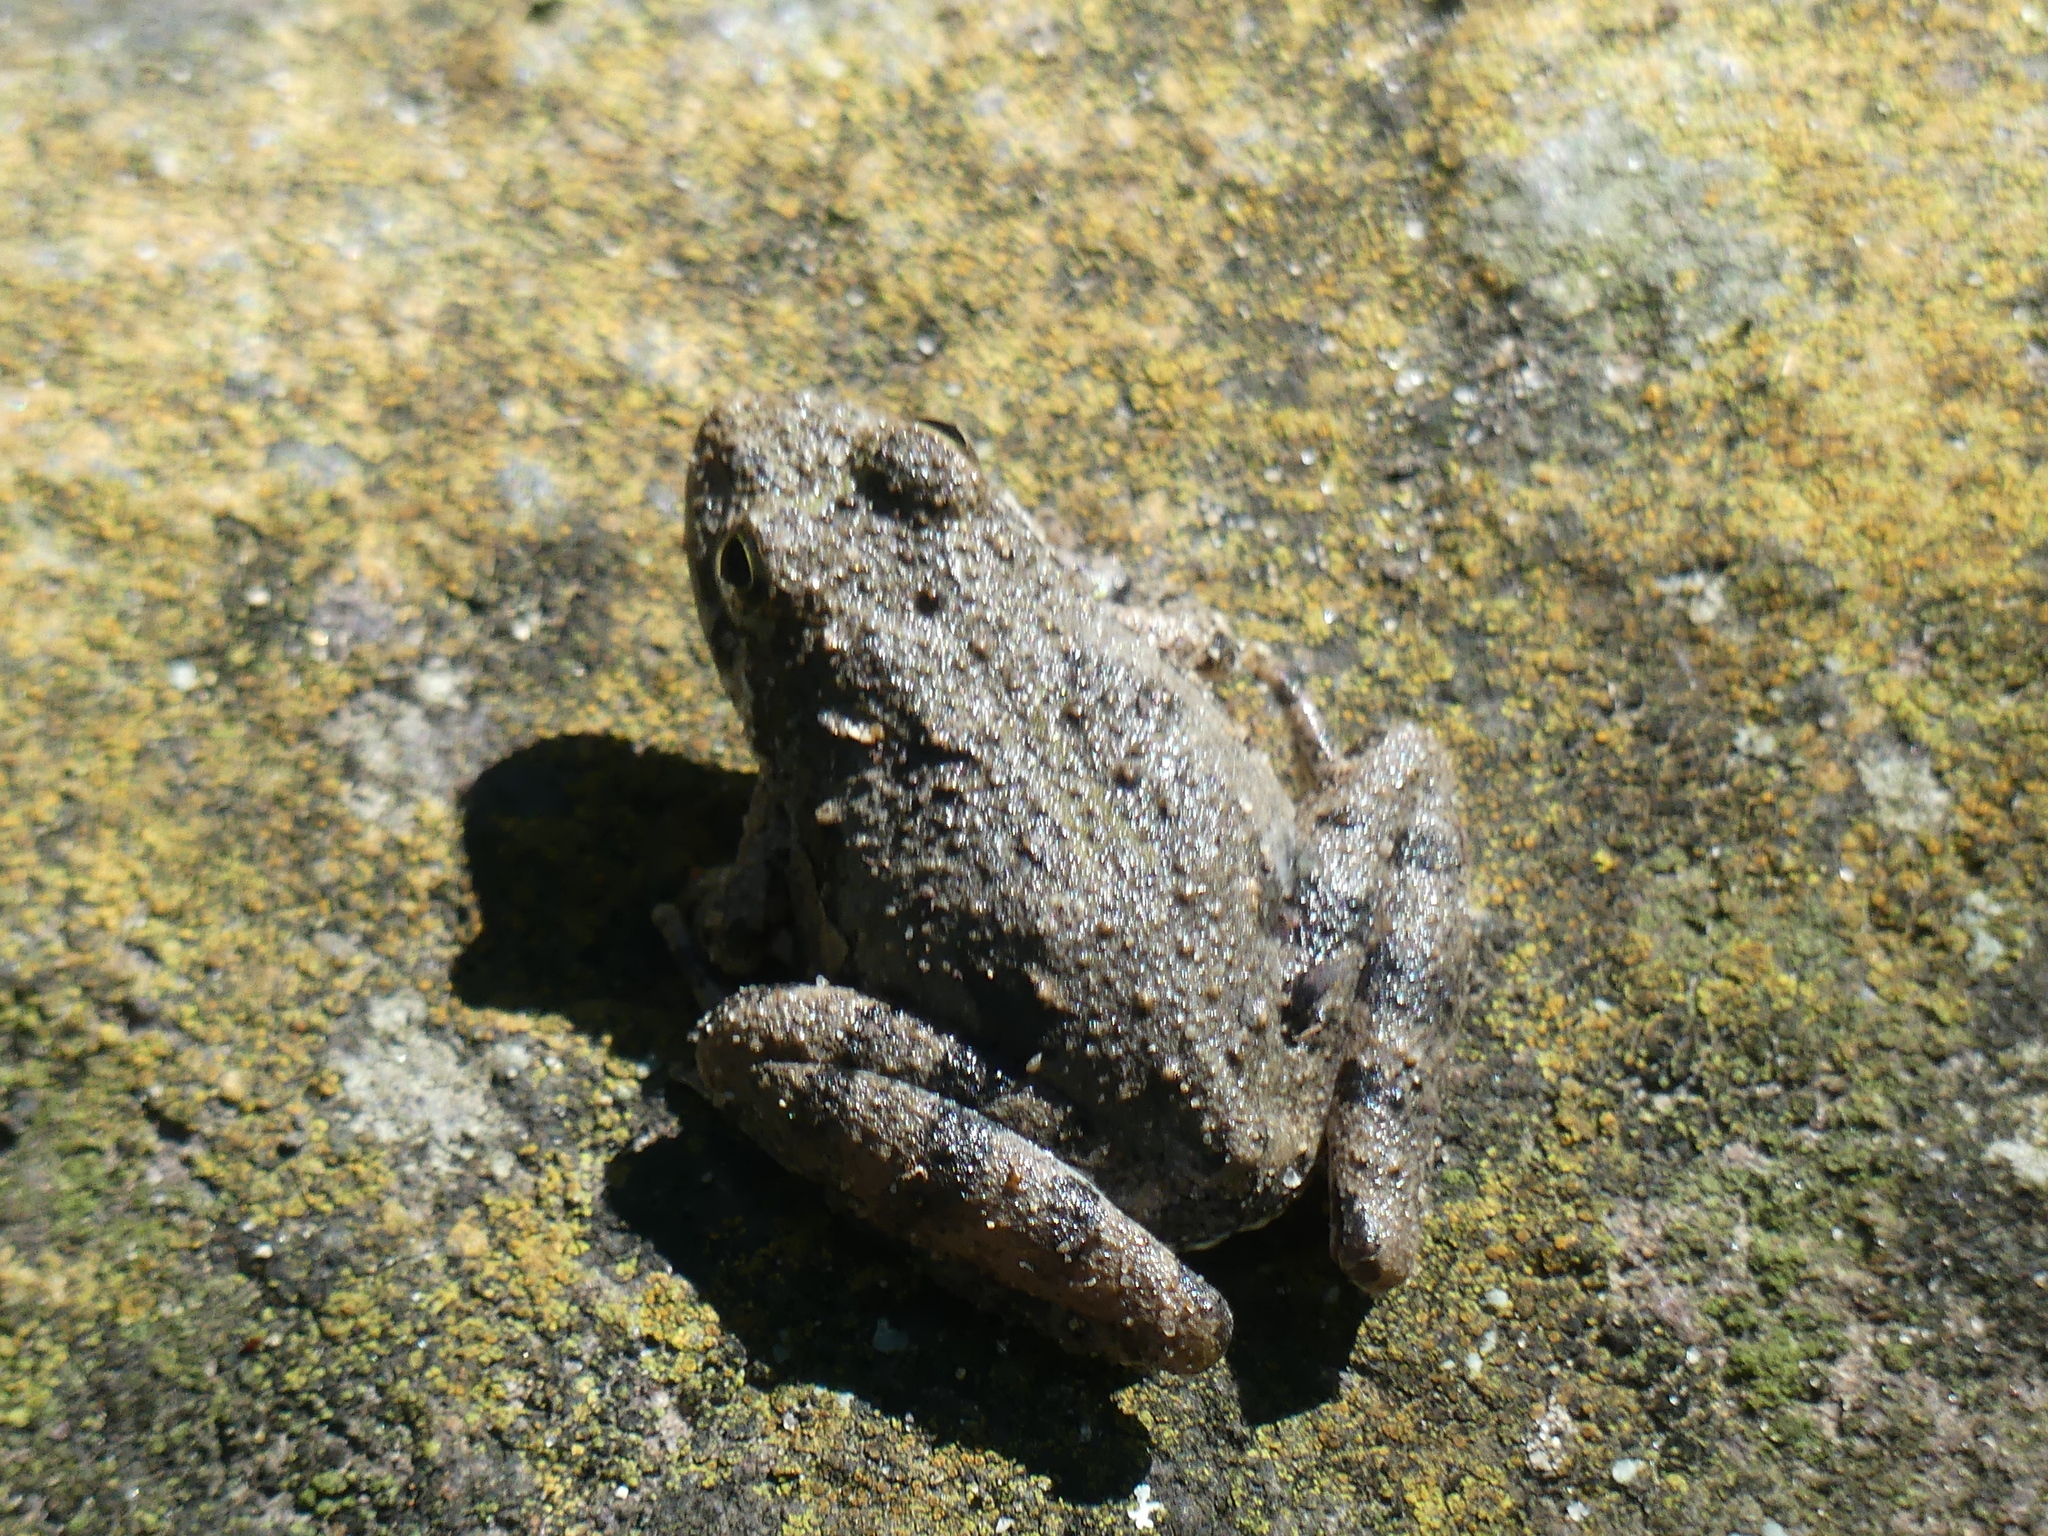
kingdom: Animalia
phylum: Chordata
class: Amphibia
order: Anura
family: Hylidae
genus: Acris
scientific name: Acris blanchardi
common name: Blanchard's cricket frog
